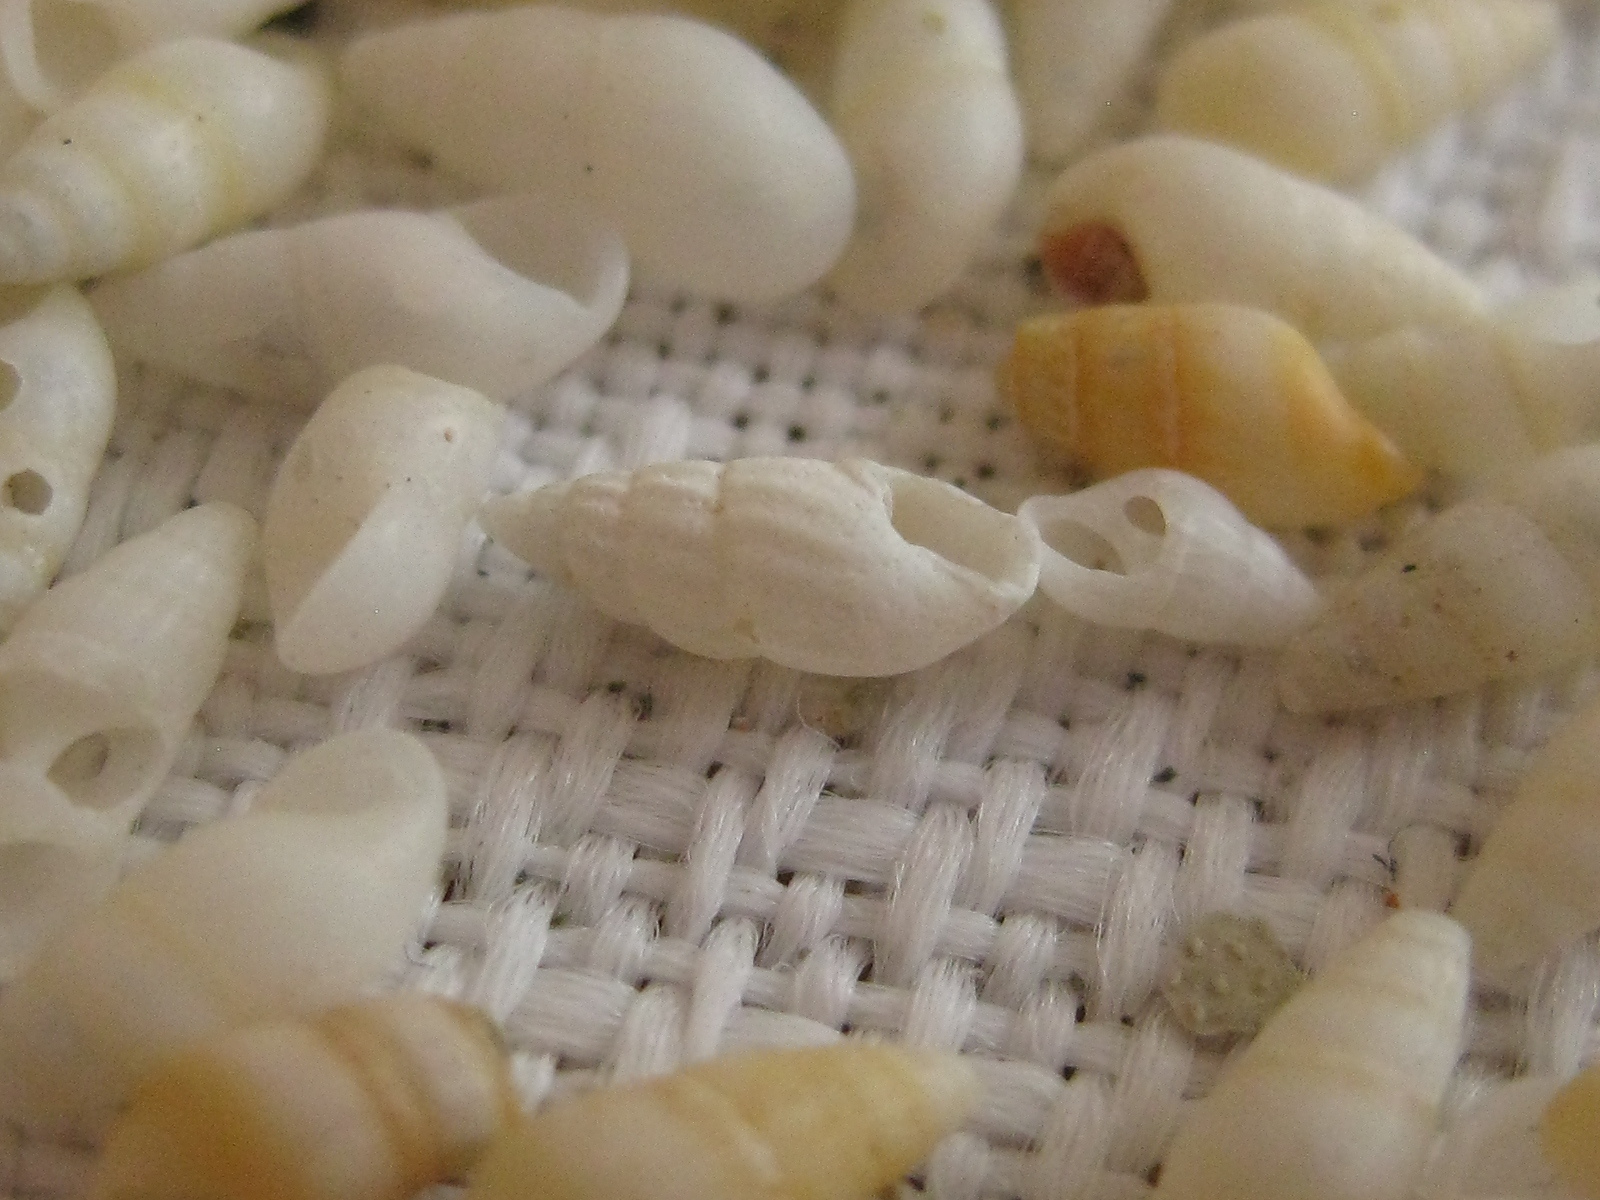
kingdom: Animalia
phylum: Mollusca
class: Gastropoda
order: Littorinimorpha
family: Rissoinidae
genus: Rissoina
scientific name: Rissoina chathamensis
